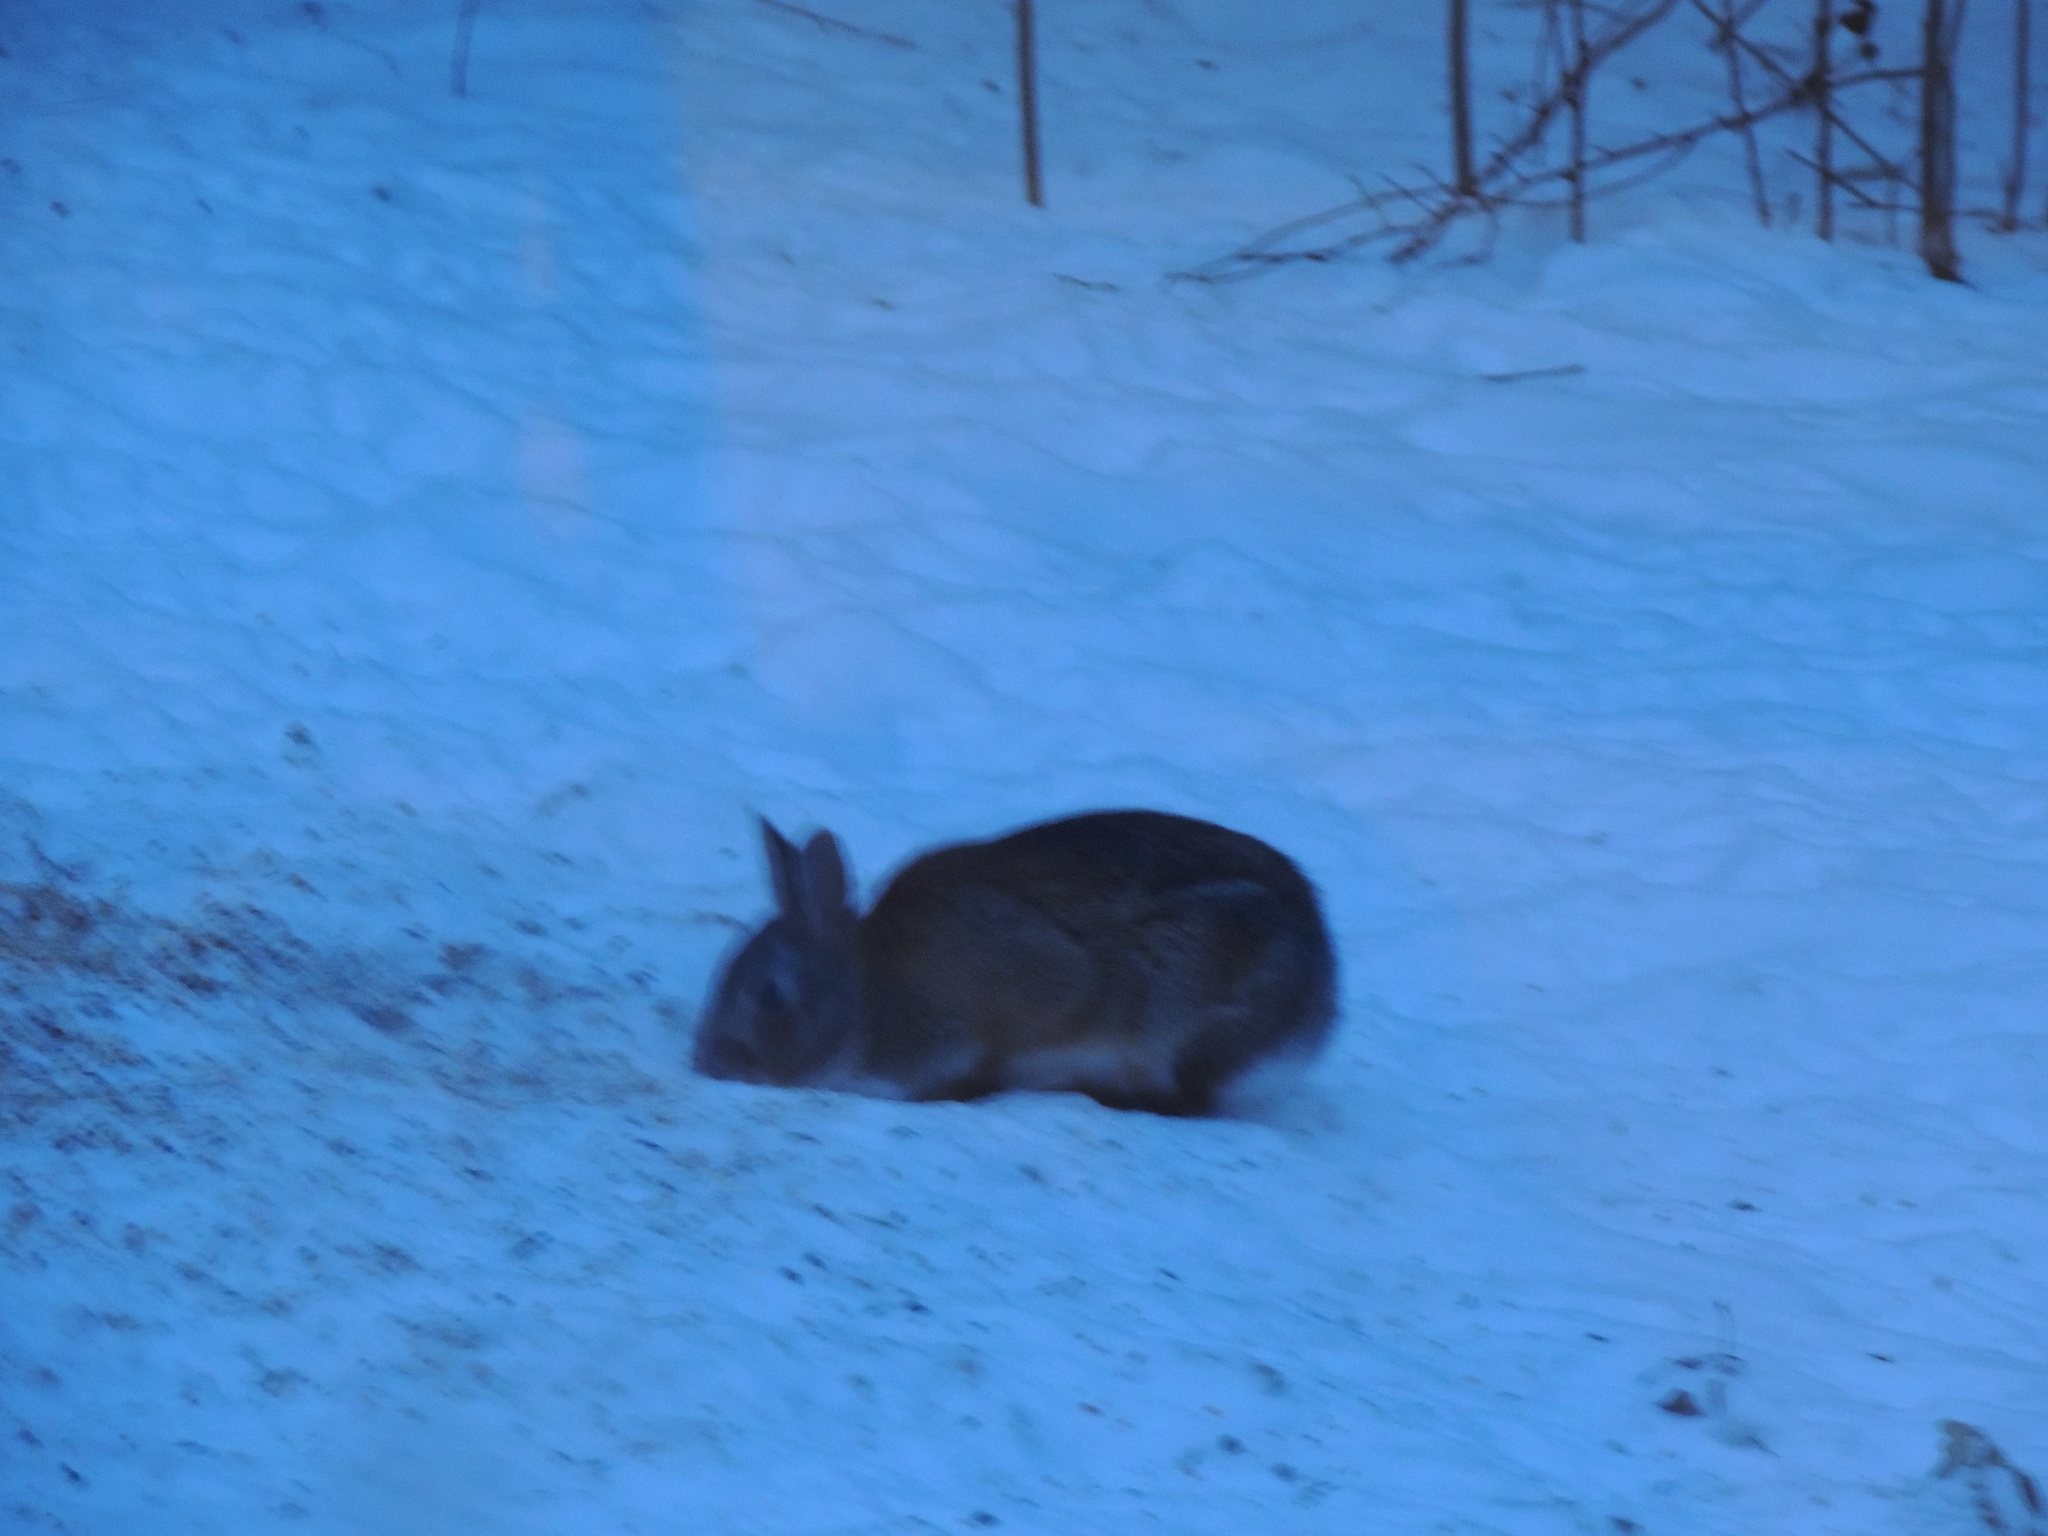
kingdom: Animalia
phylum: Chordata
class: Mammalia
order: Lagomorpha
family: Leporidae
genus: Sylvilagus
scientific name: Sylvilagus floridanus
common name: Eastern cottontail
